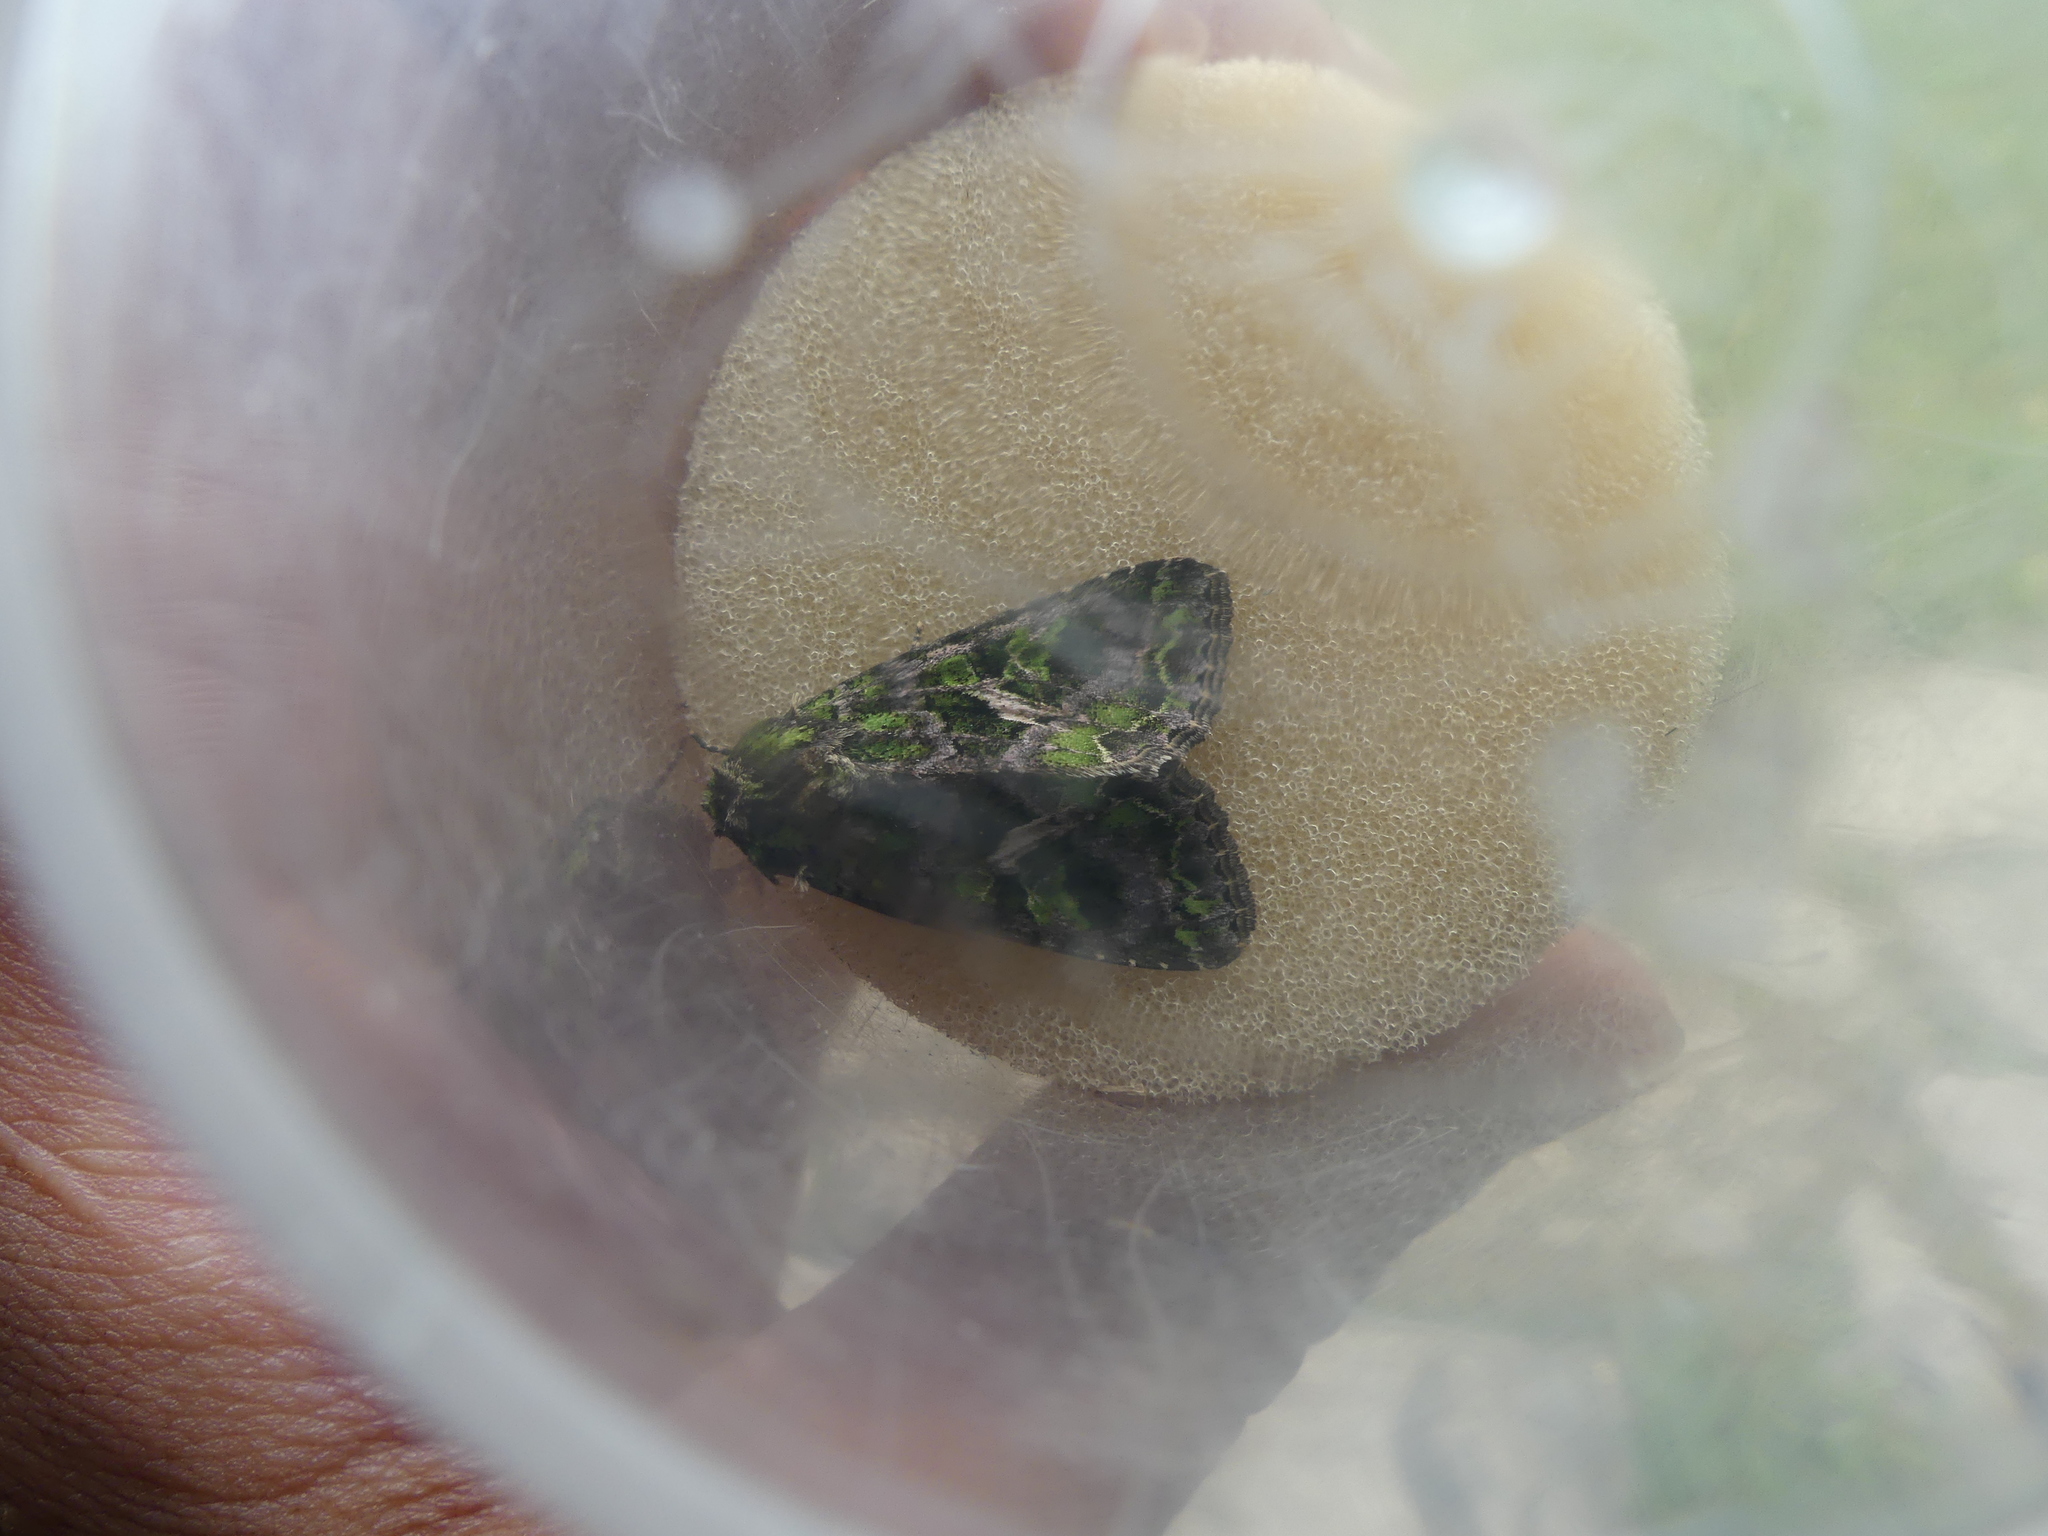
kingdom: Animalia
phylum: Arthropoda
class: Insecta
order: Lepidoptera
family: Noctuidae
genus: Trachea
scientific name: Trachea atriplicis
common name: Orache moth
